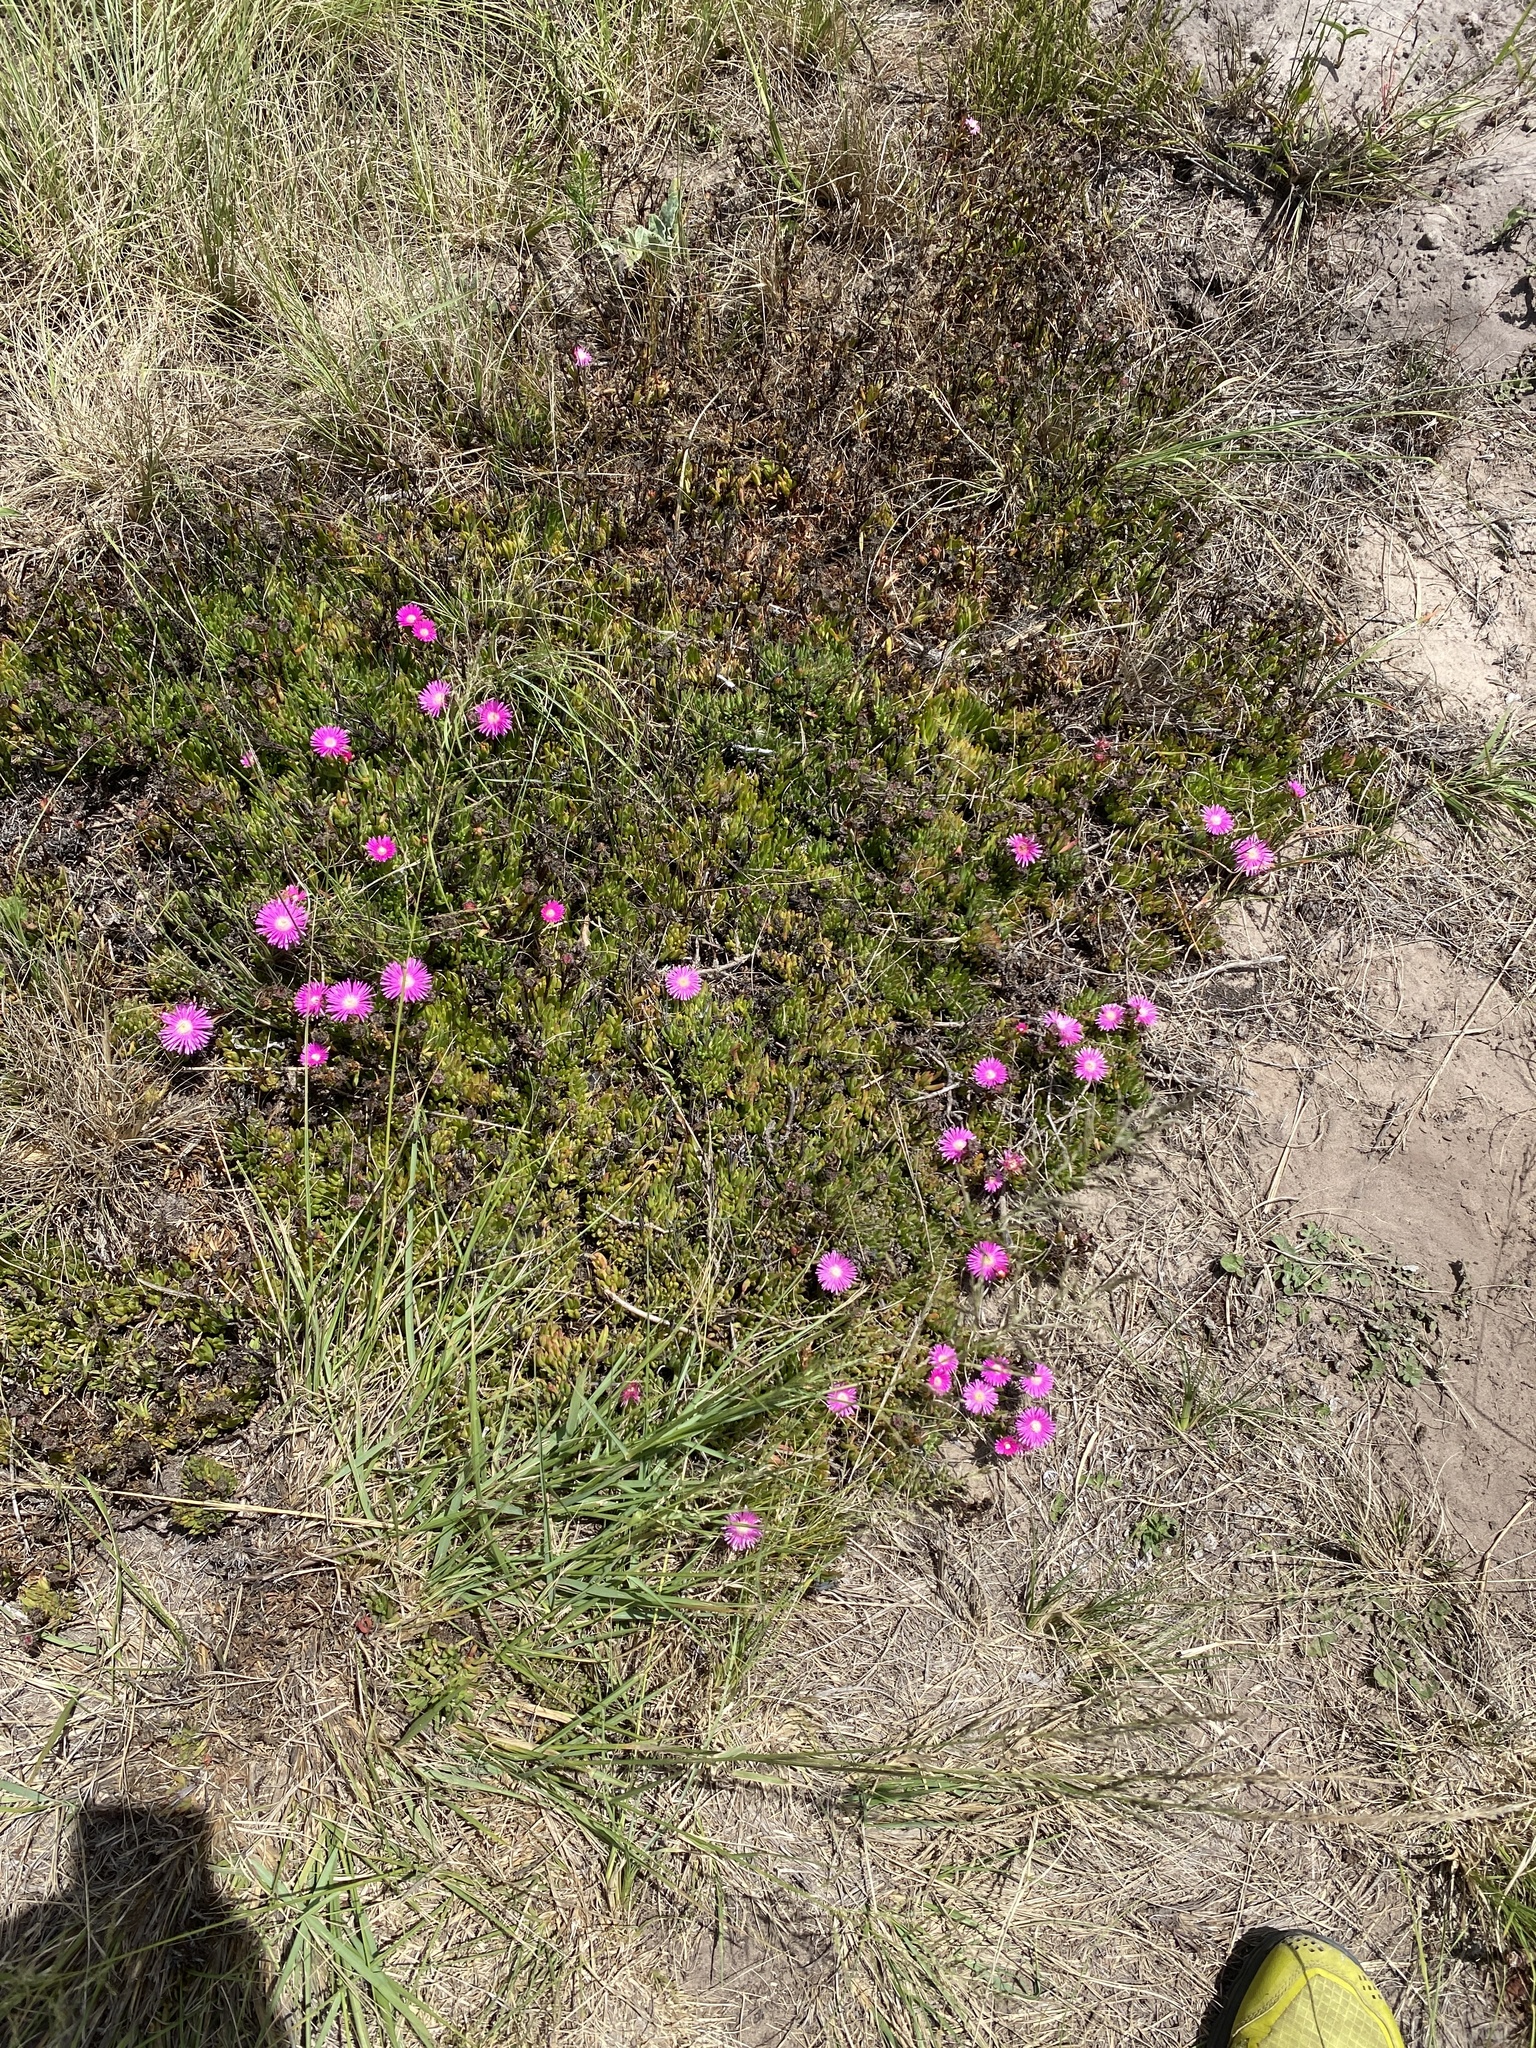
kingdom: Plantae
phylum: Tracheophyta
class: Magnoliopsida
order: Caryophyllales
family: Aizoaceae
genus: Ruschia
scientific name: Ruschia duthiae
